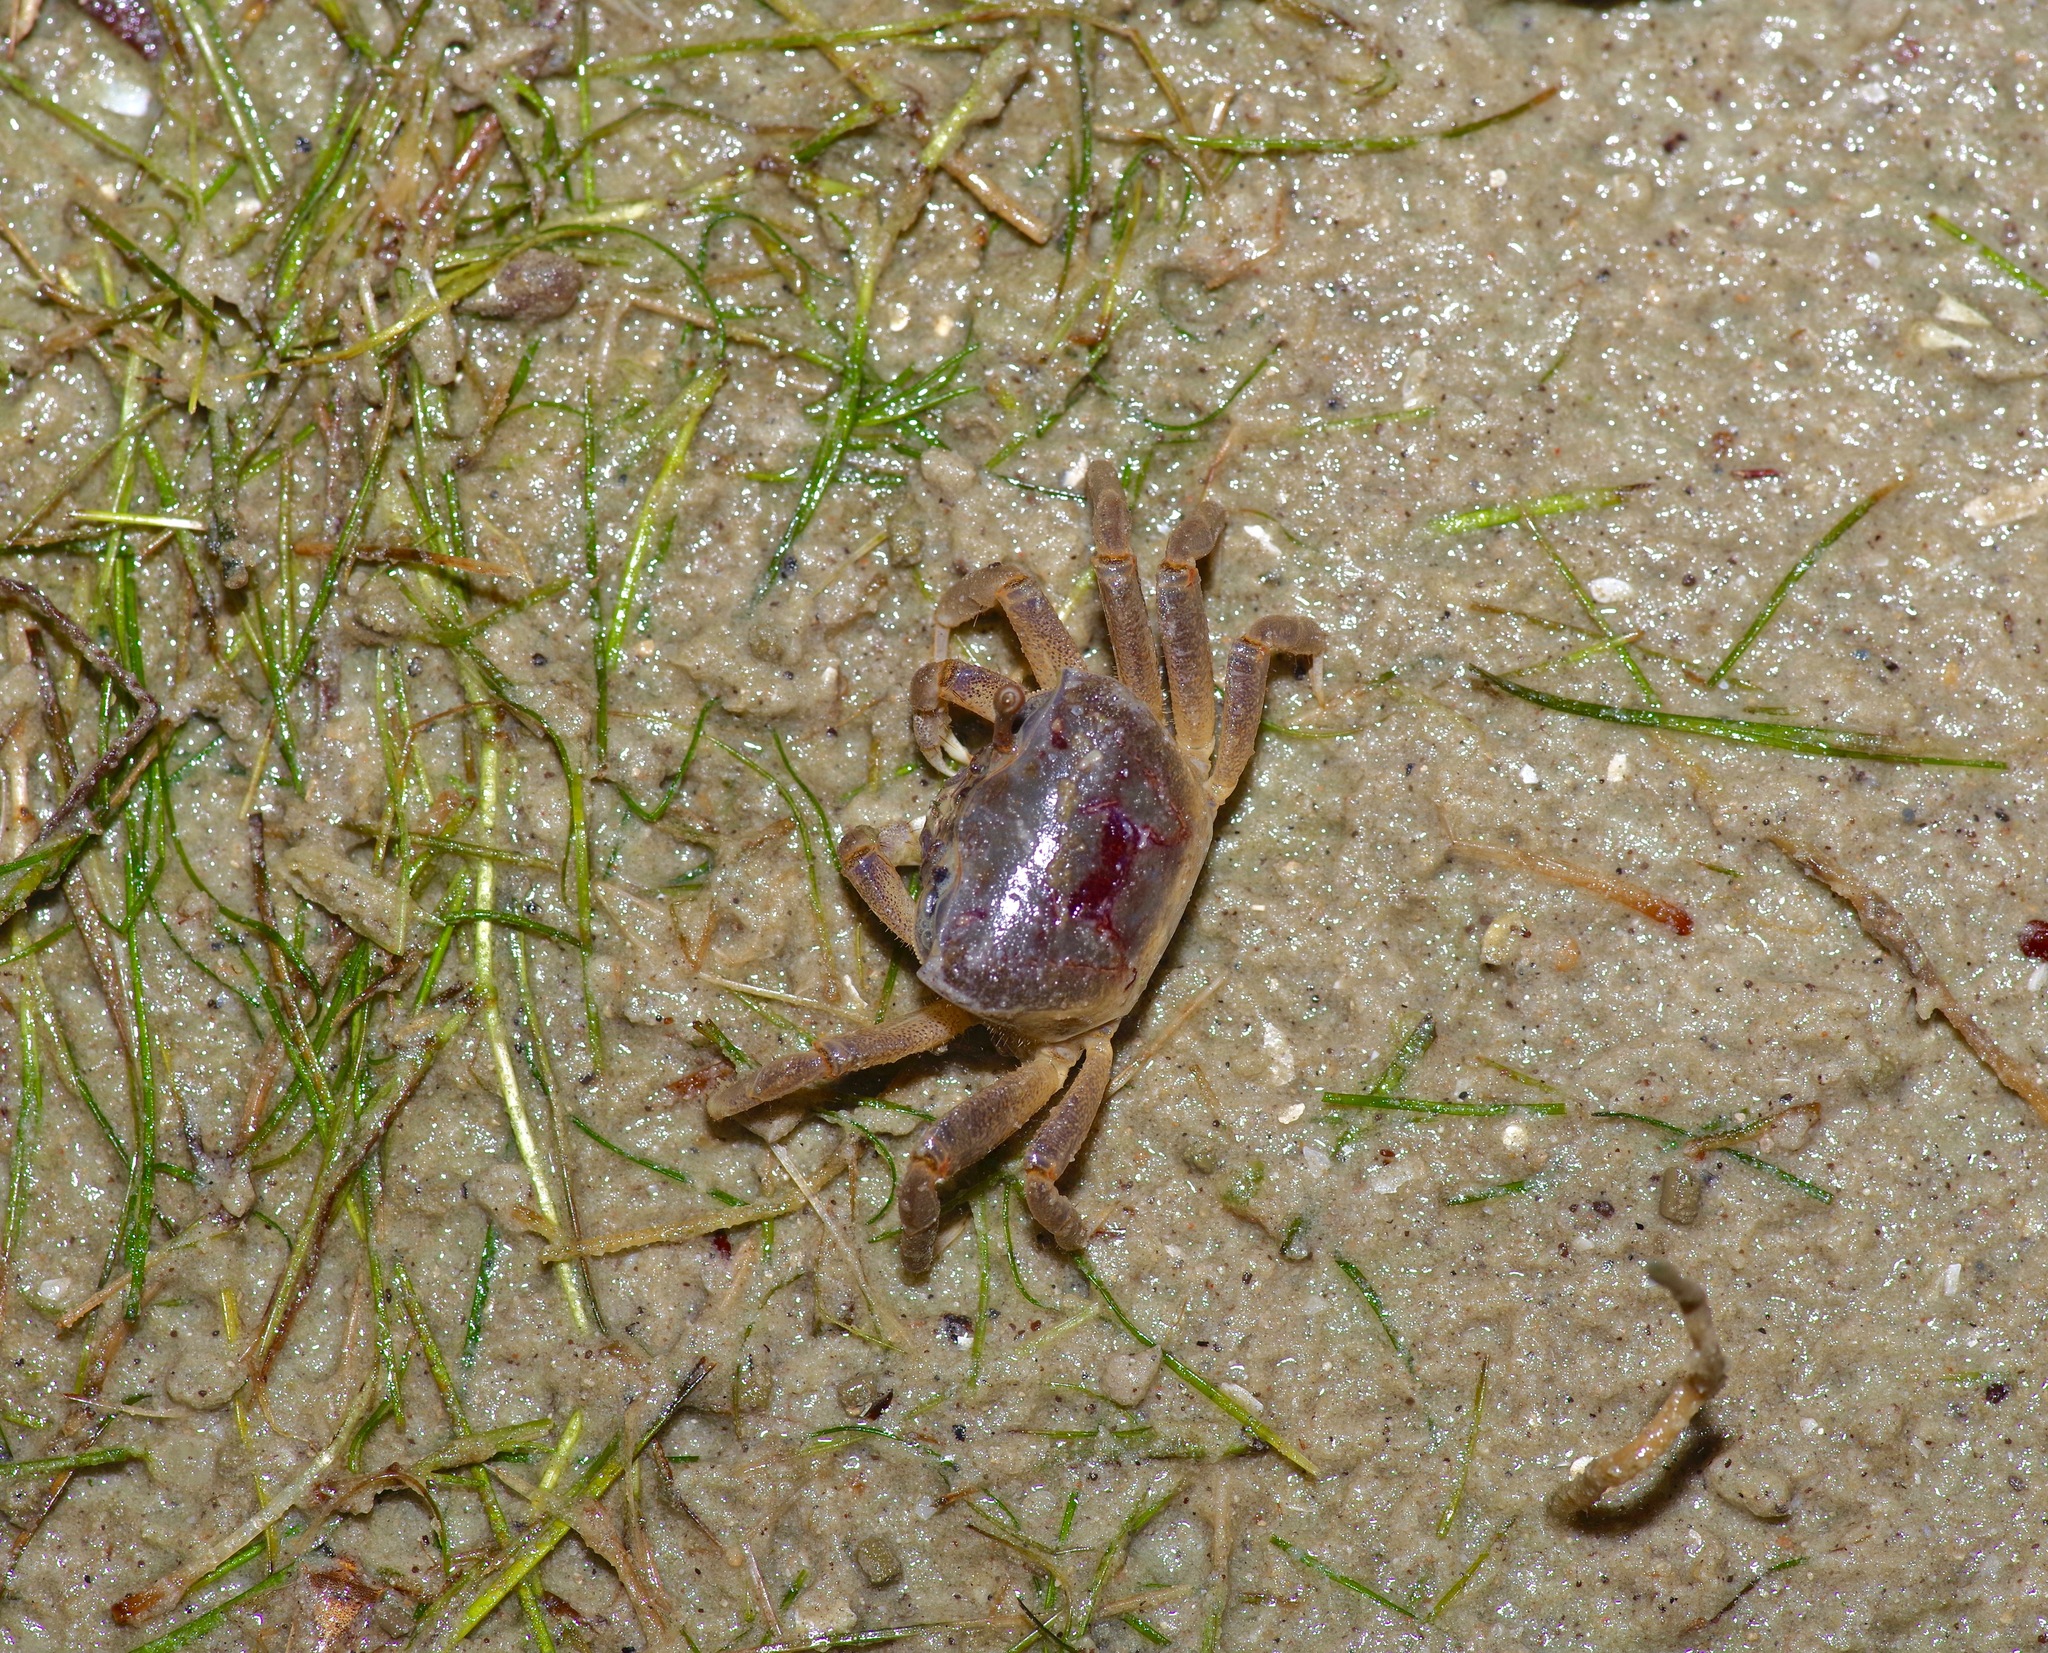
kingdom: Animalia
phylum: Arthropoda
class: Malacostraca
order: Decapoda
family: Ocypodidae
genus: Leptuca
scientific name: Leptuca panacea
